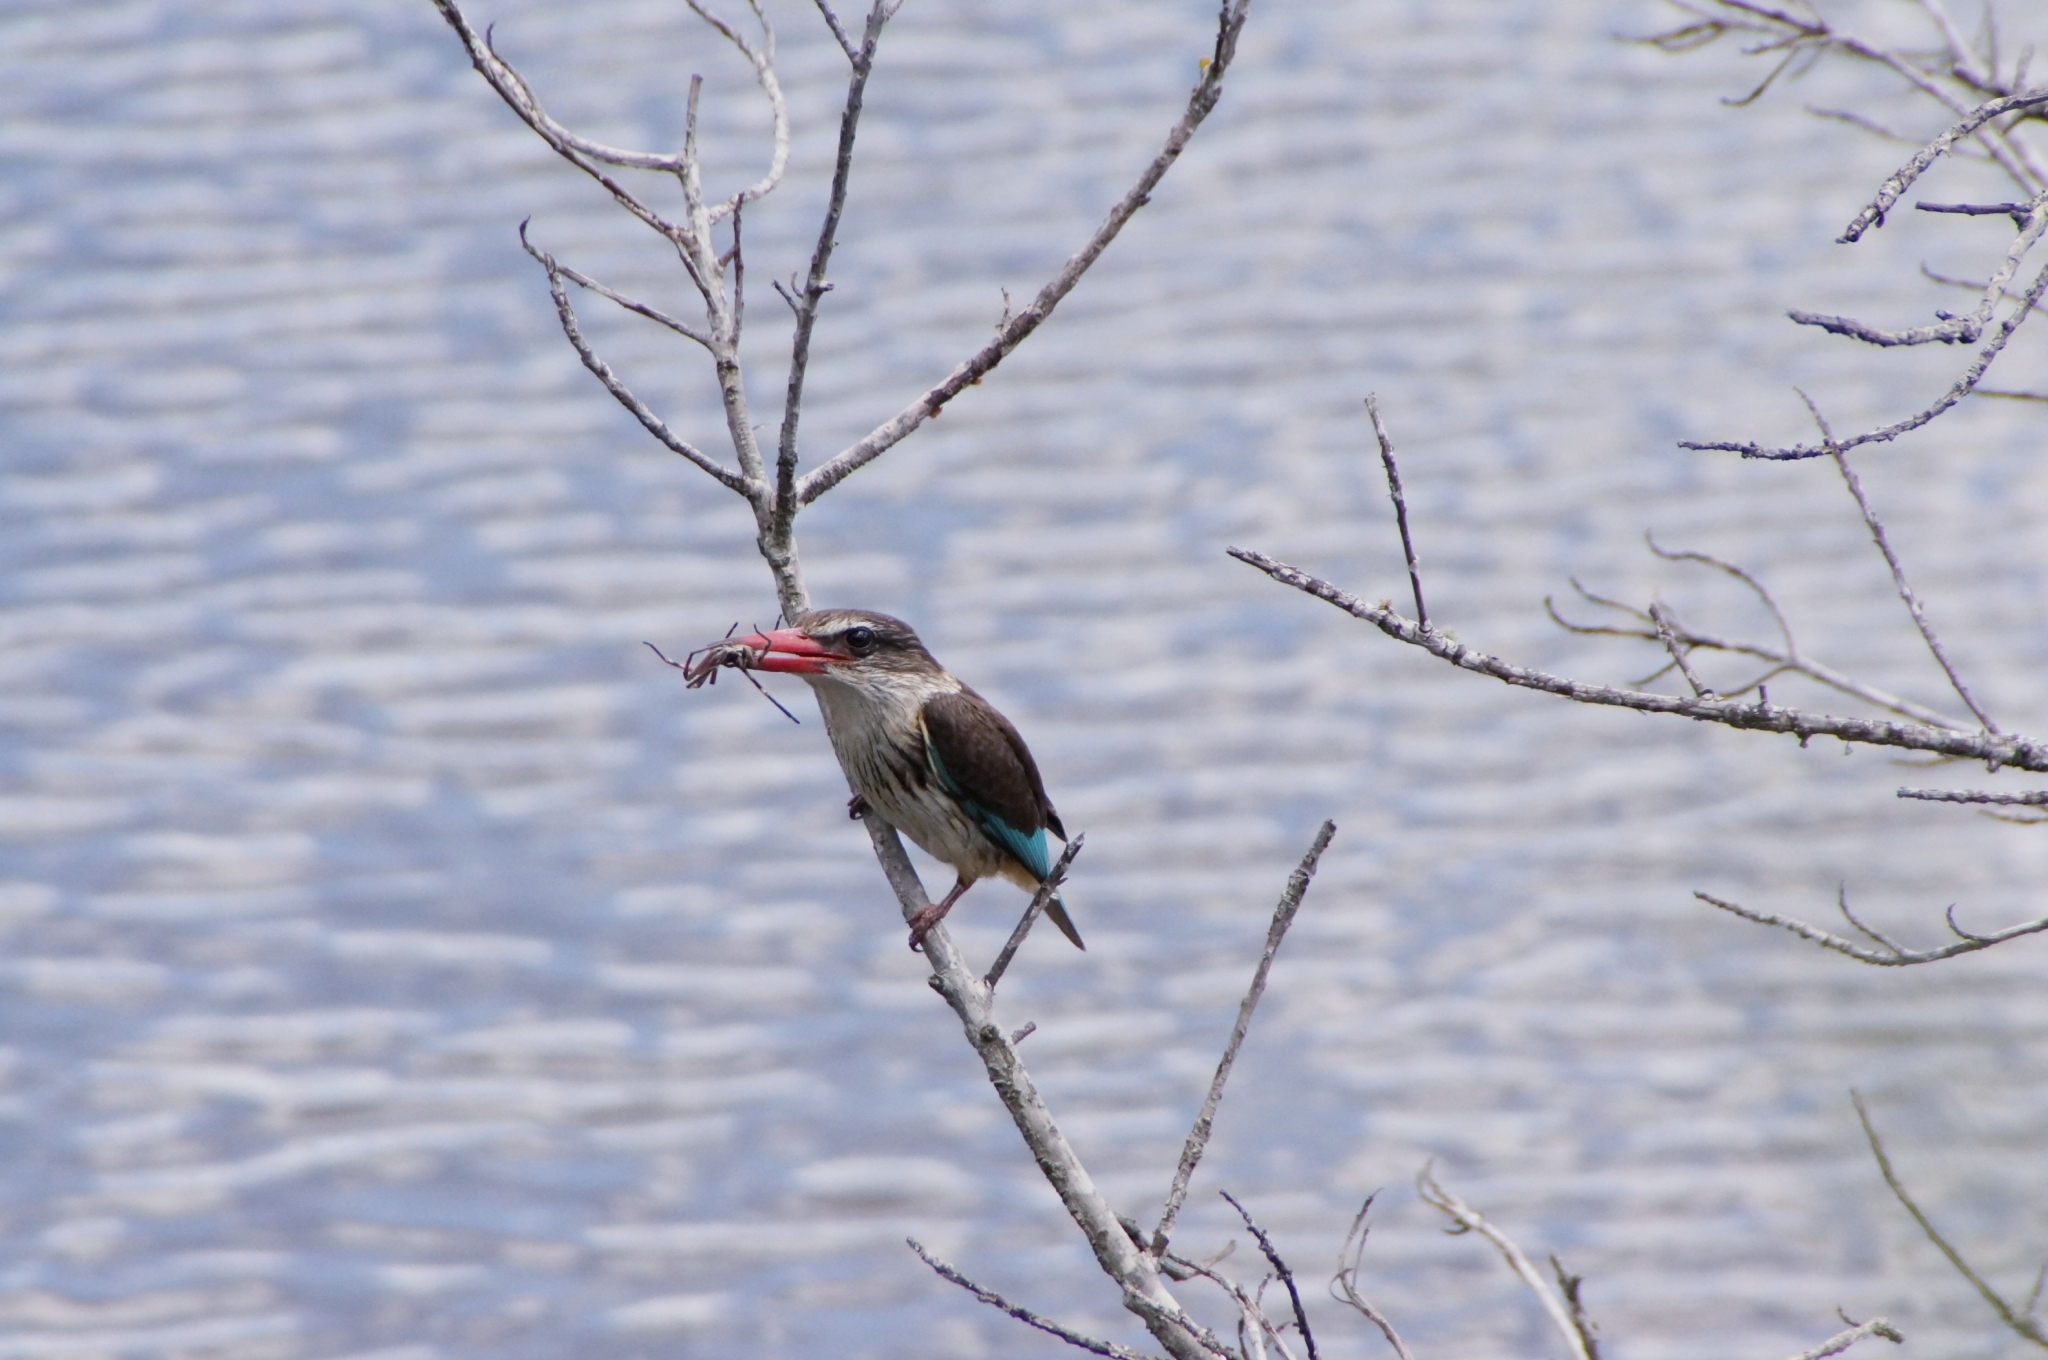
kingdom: Animalia
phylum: Chordata
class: Aves
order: Coraciiformes
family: Alcedinidae
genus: Halcyon
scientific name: Halcyon albiventris
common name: Brown-hooded kingfisher
